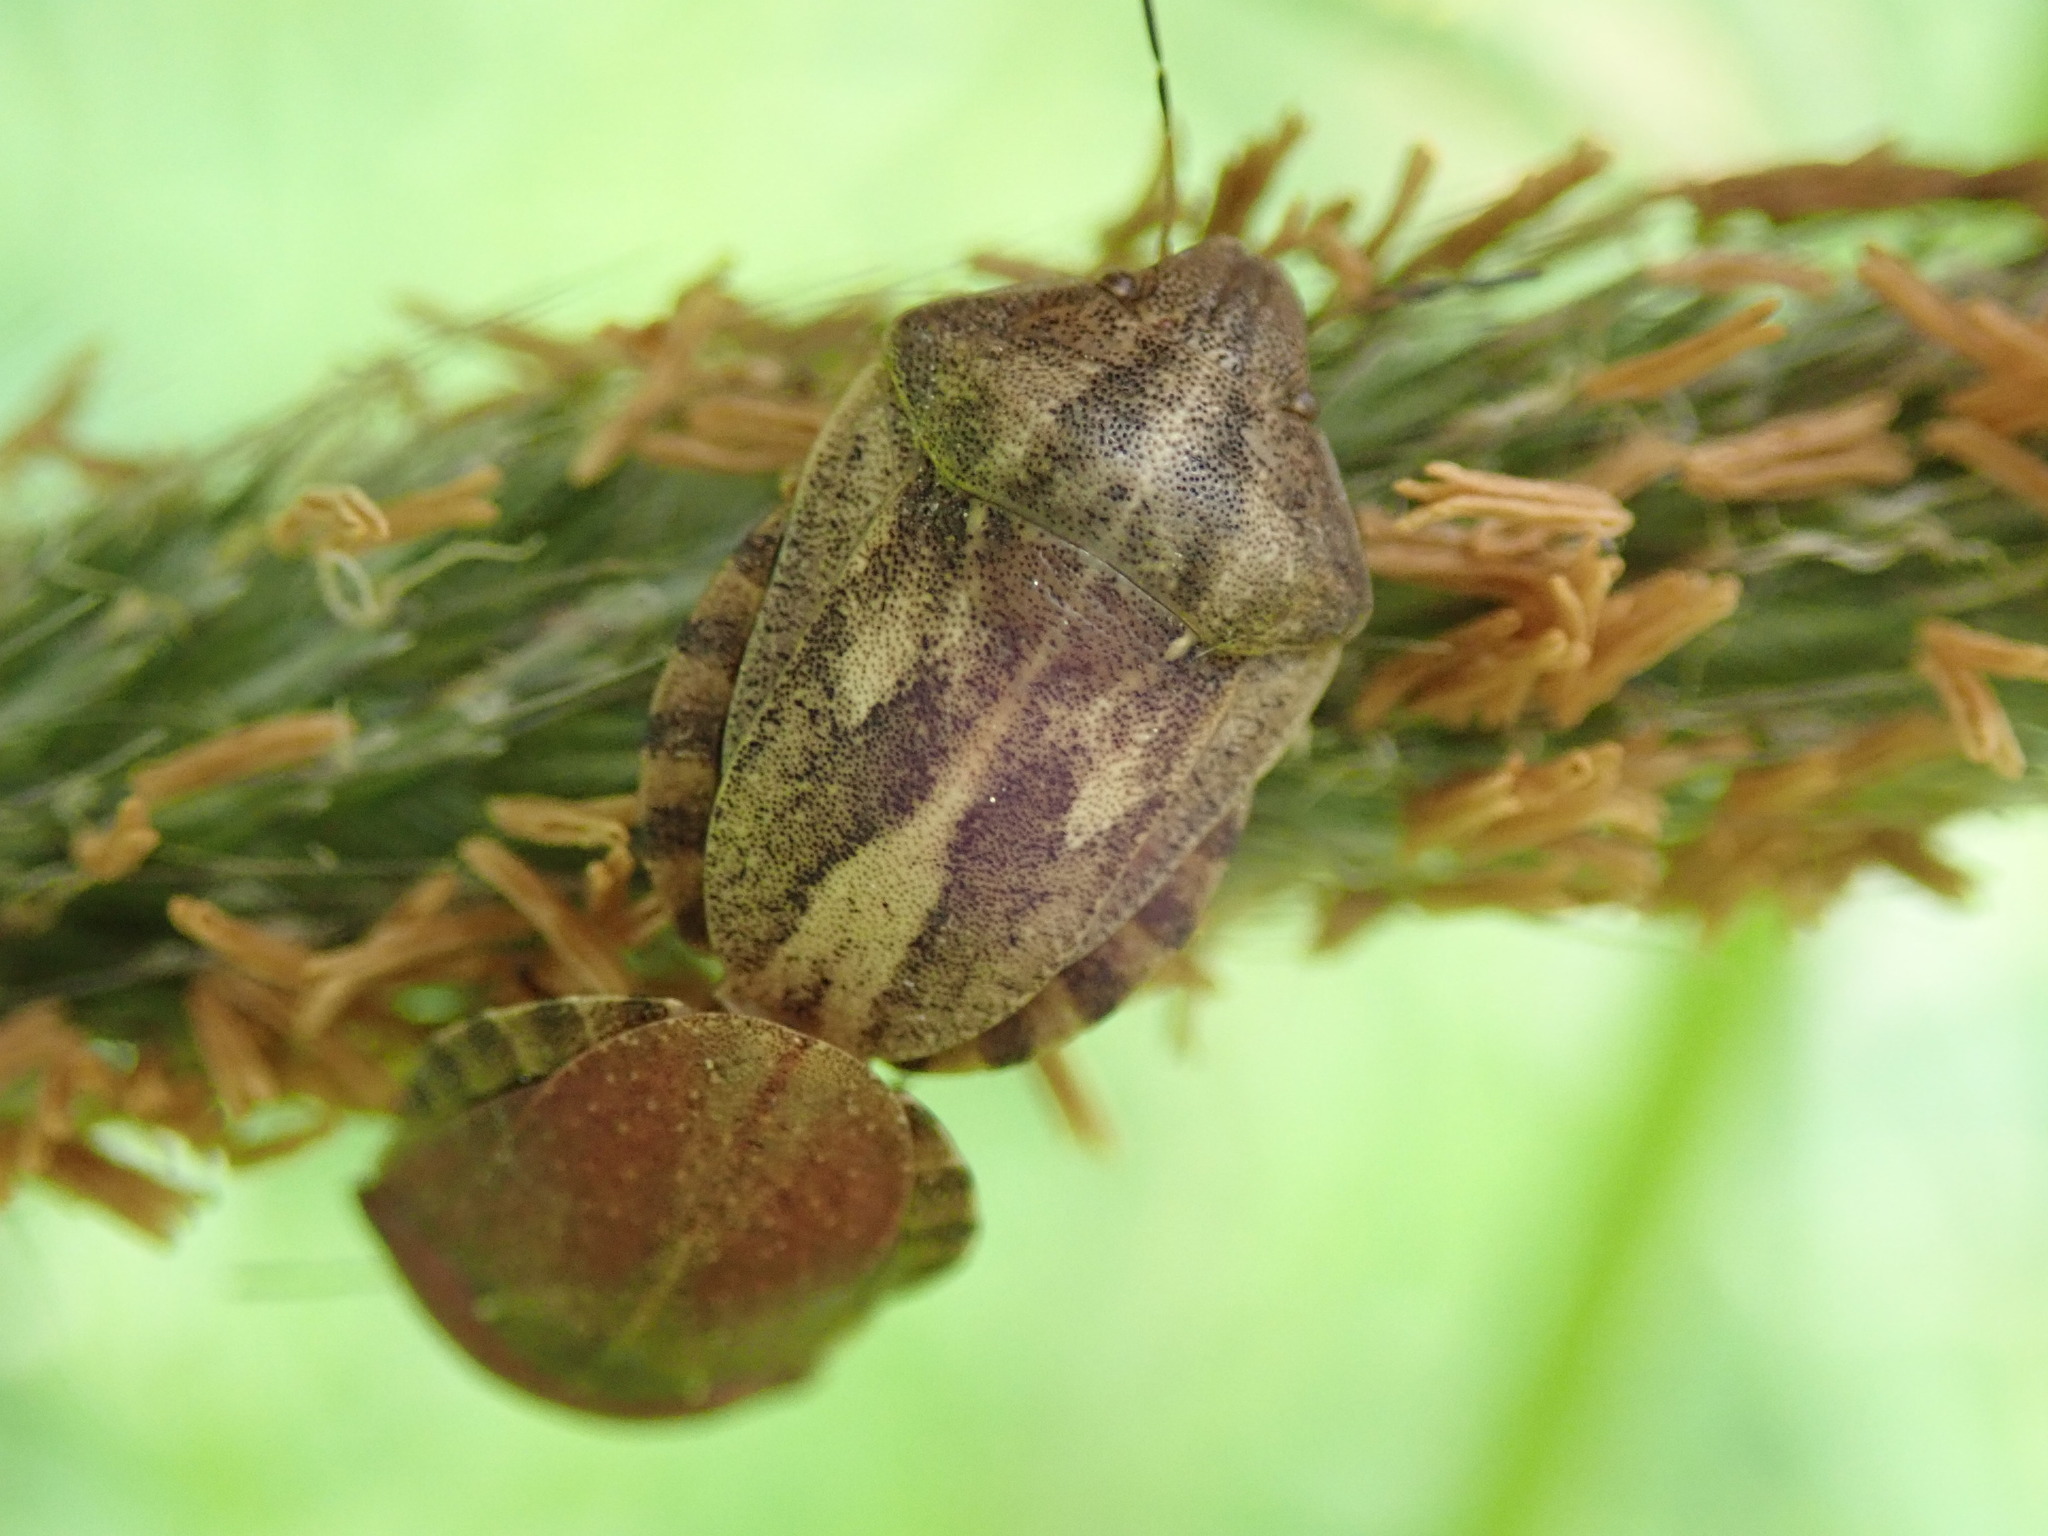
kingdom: Animalia
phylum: Arthropoda
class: Insecta
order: Hemiptera
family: Scutelleridae
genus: Eurygaster
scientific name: Eurygaster testudinaria
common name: Tortoise bug
